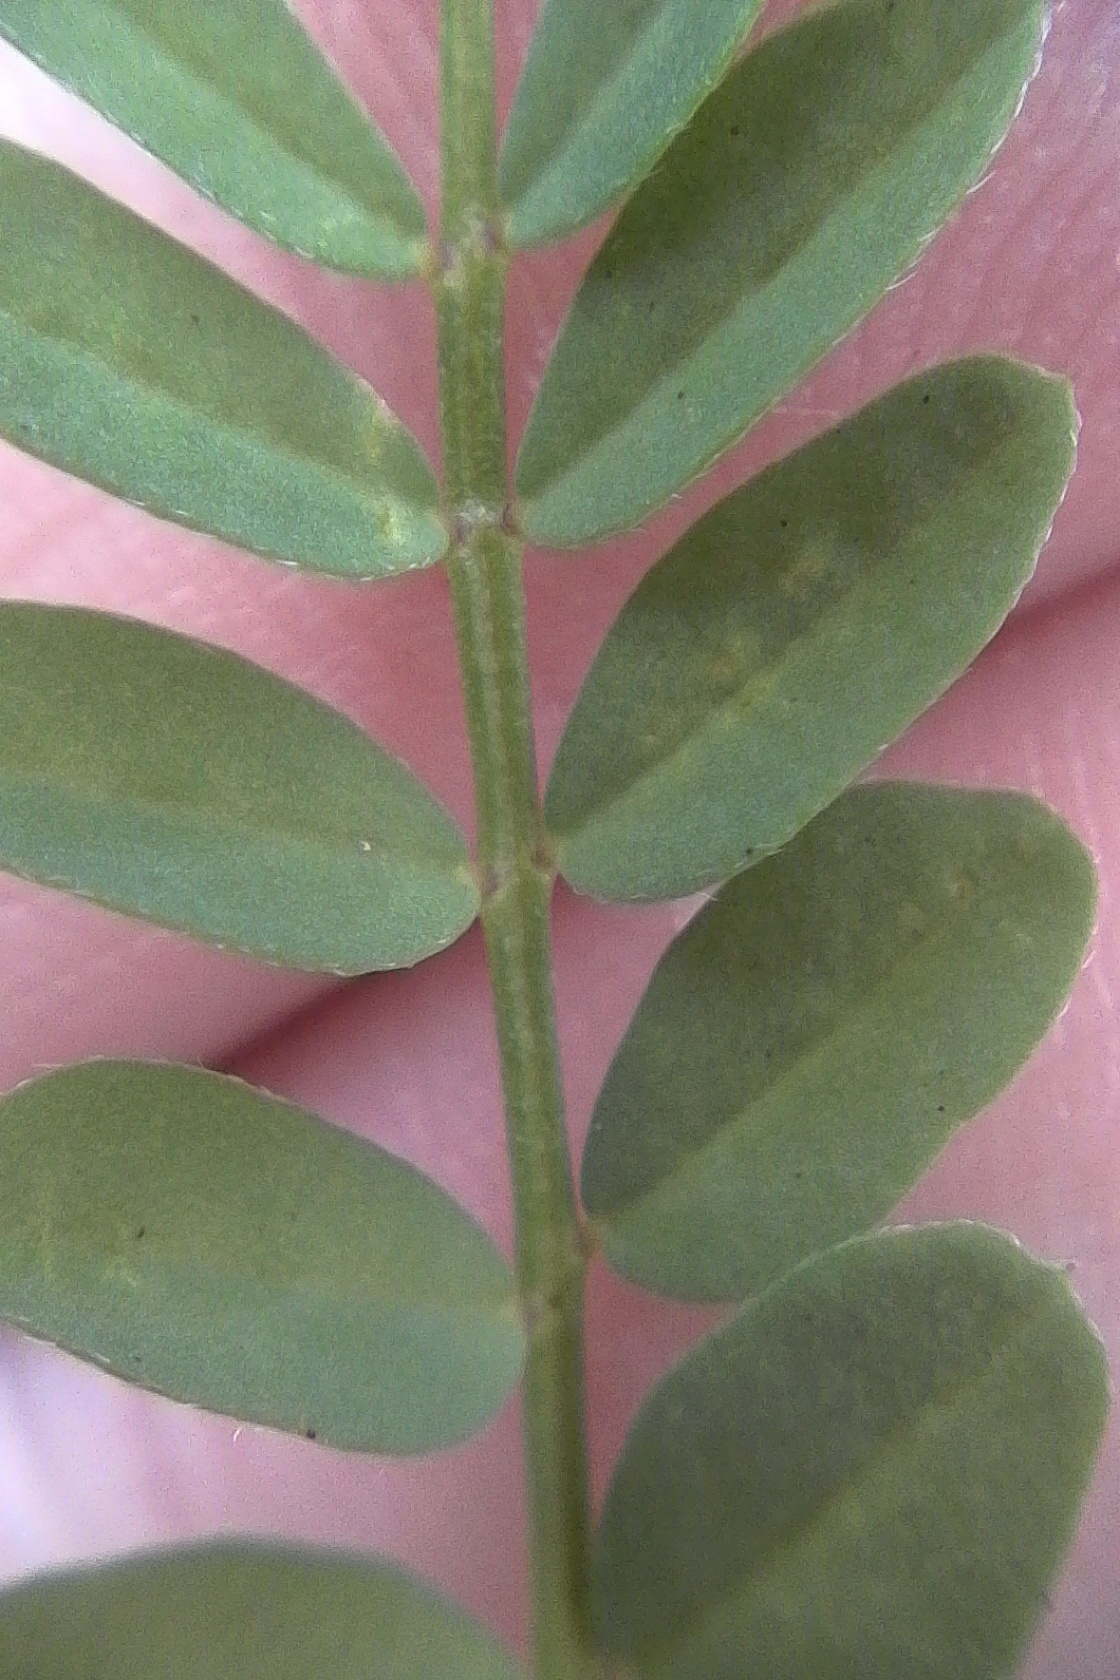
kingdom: Plantae
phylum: Tracheophyta
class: Magnoliopsida
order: Fabales
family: Fabaceae
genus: Ornithopus
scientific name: Ornithopus pinnatus
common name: Orange bird's-foot
